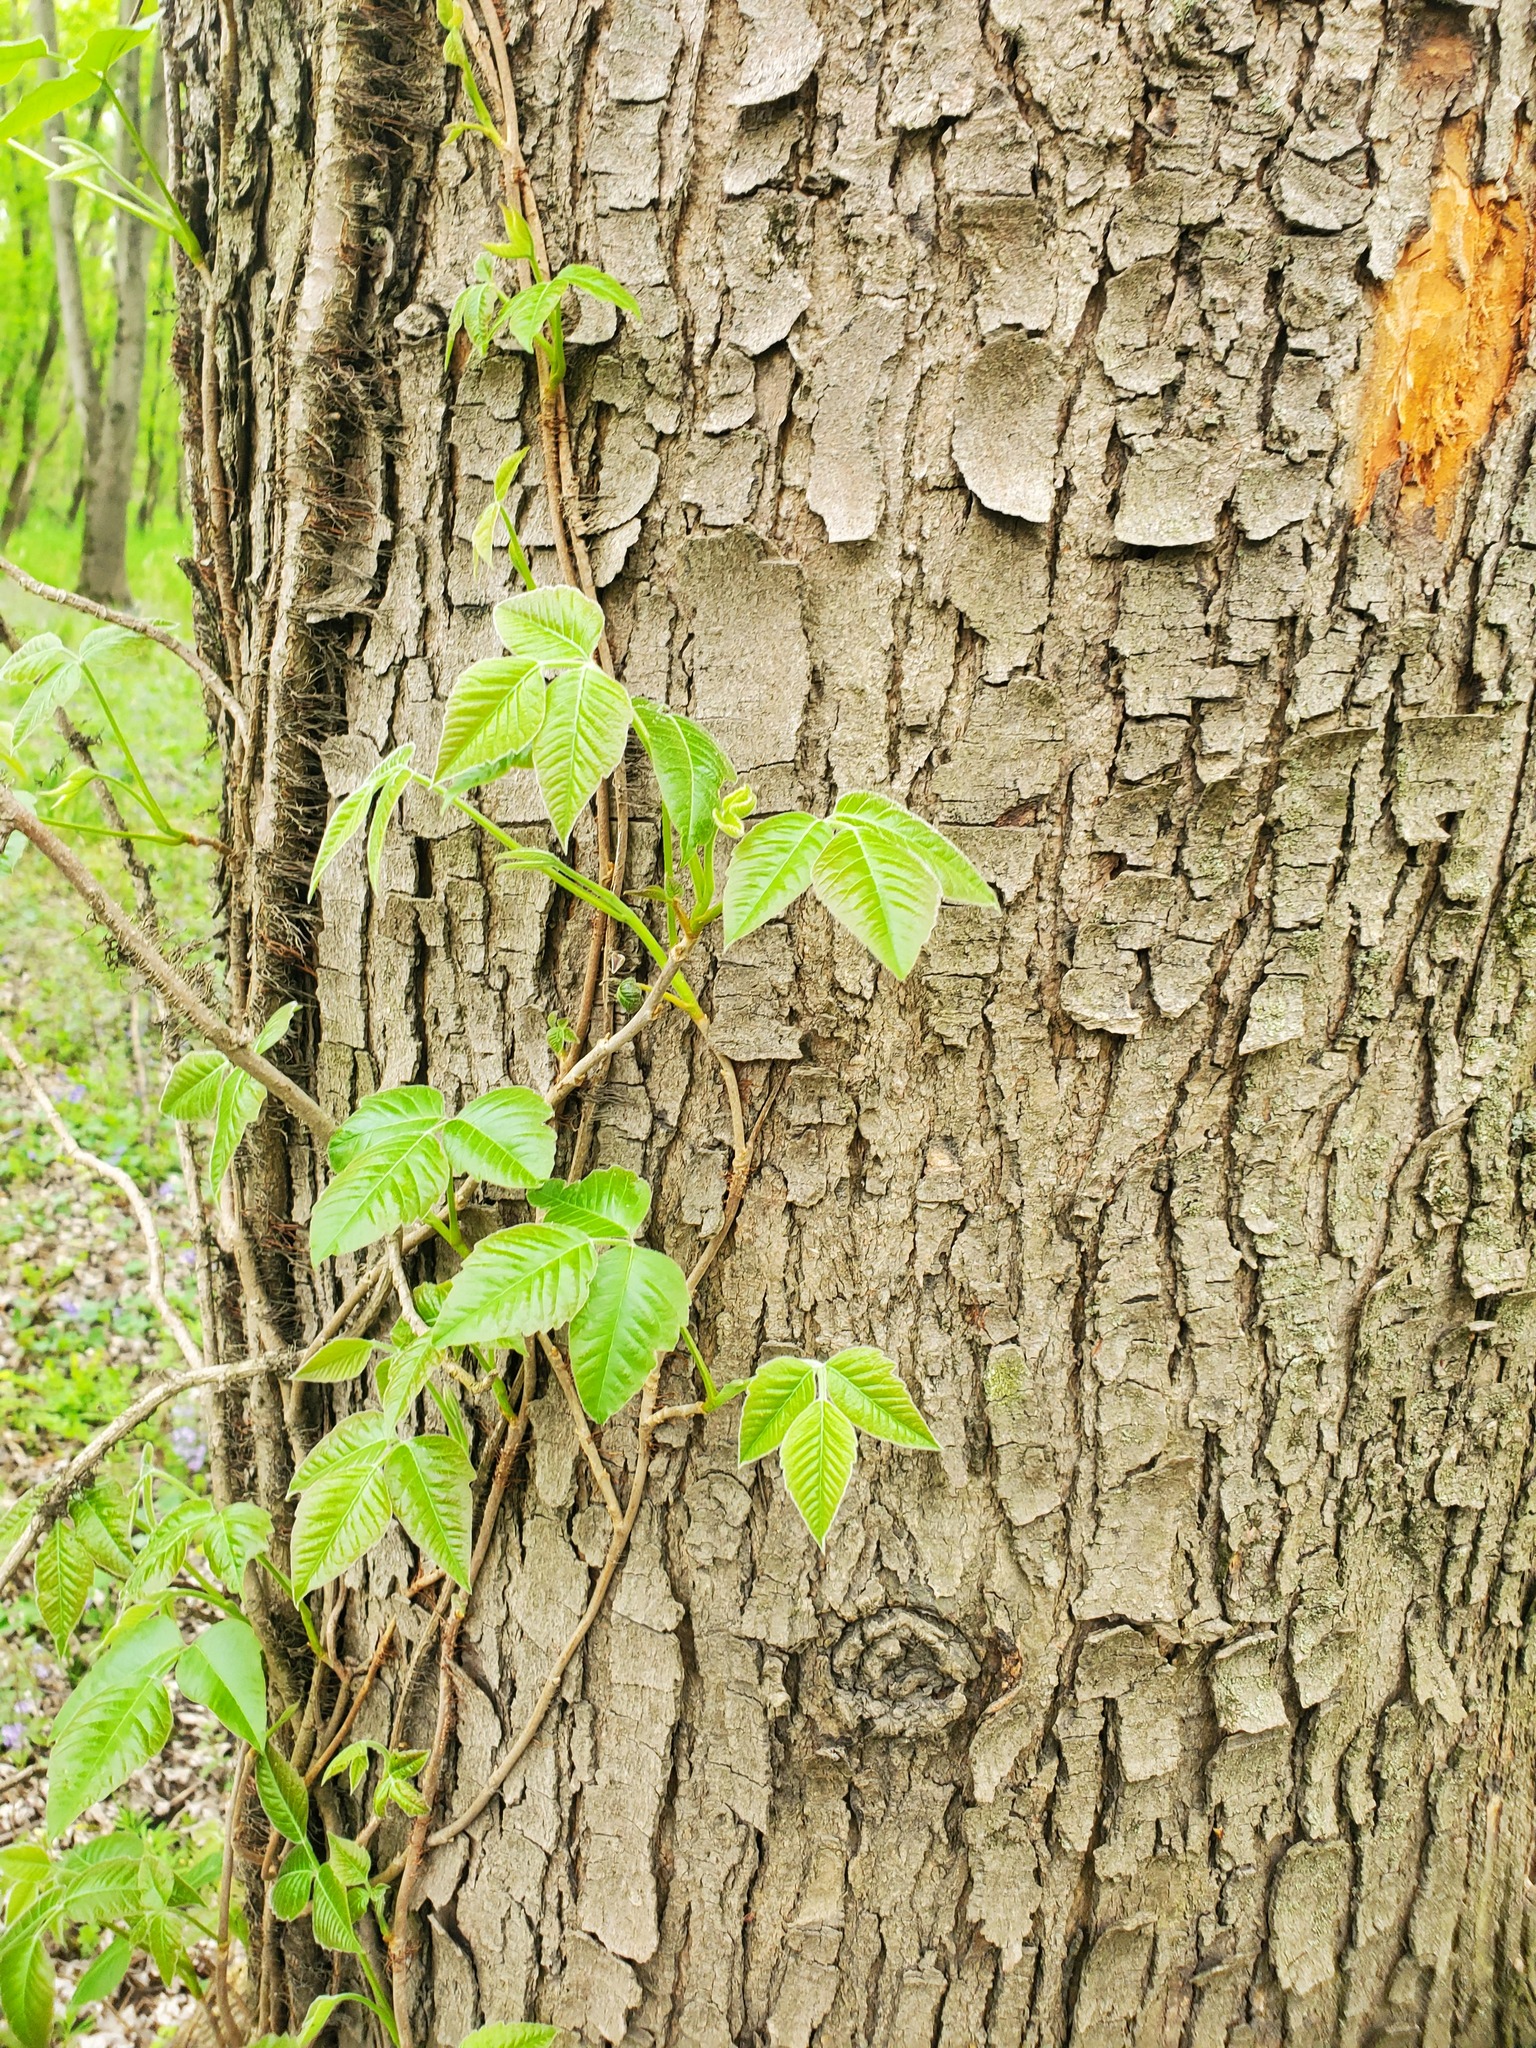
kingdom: Plantae
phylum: Tracheophyta
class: Magnoliopsida
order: Sapindales
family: Anacardiaceae
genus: Toxicodendron
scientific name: Toxicodendron radicans
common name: Poison ivy
